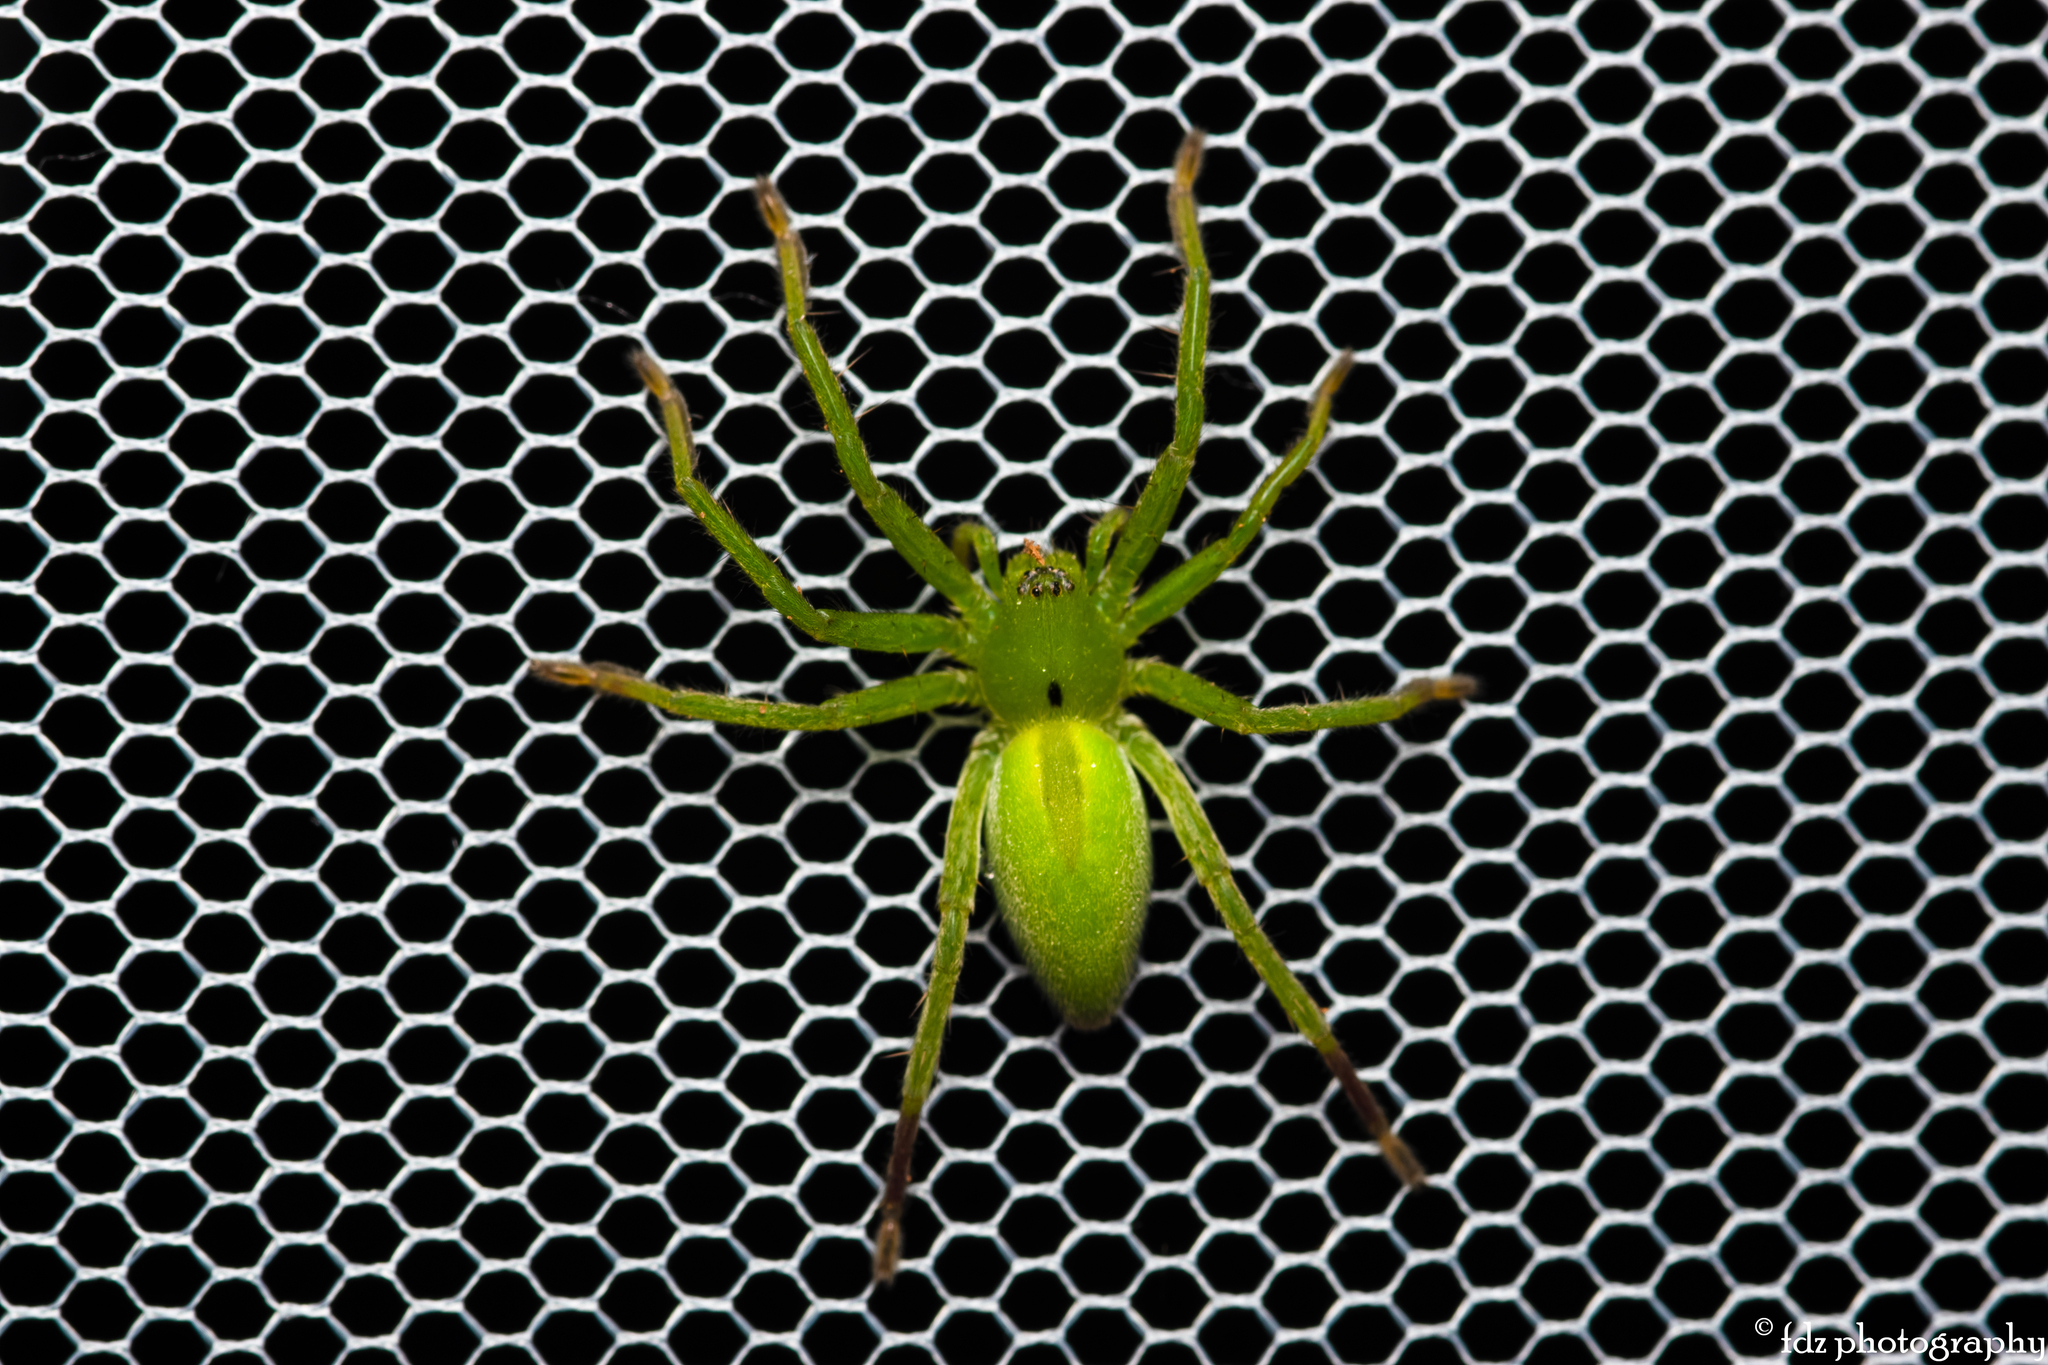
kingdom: Animalia
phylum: Arthropoda
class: Arachnida
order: Araneae
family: Sparassidae
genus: Micrommata
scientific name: Micrommata ligurina
